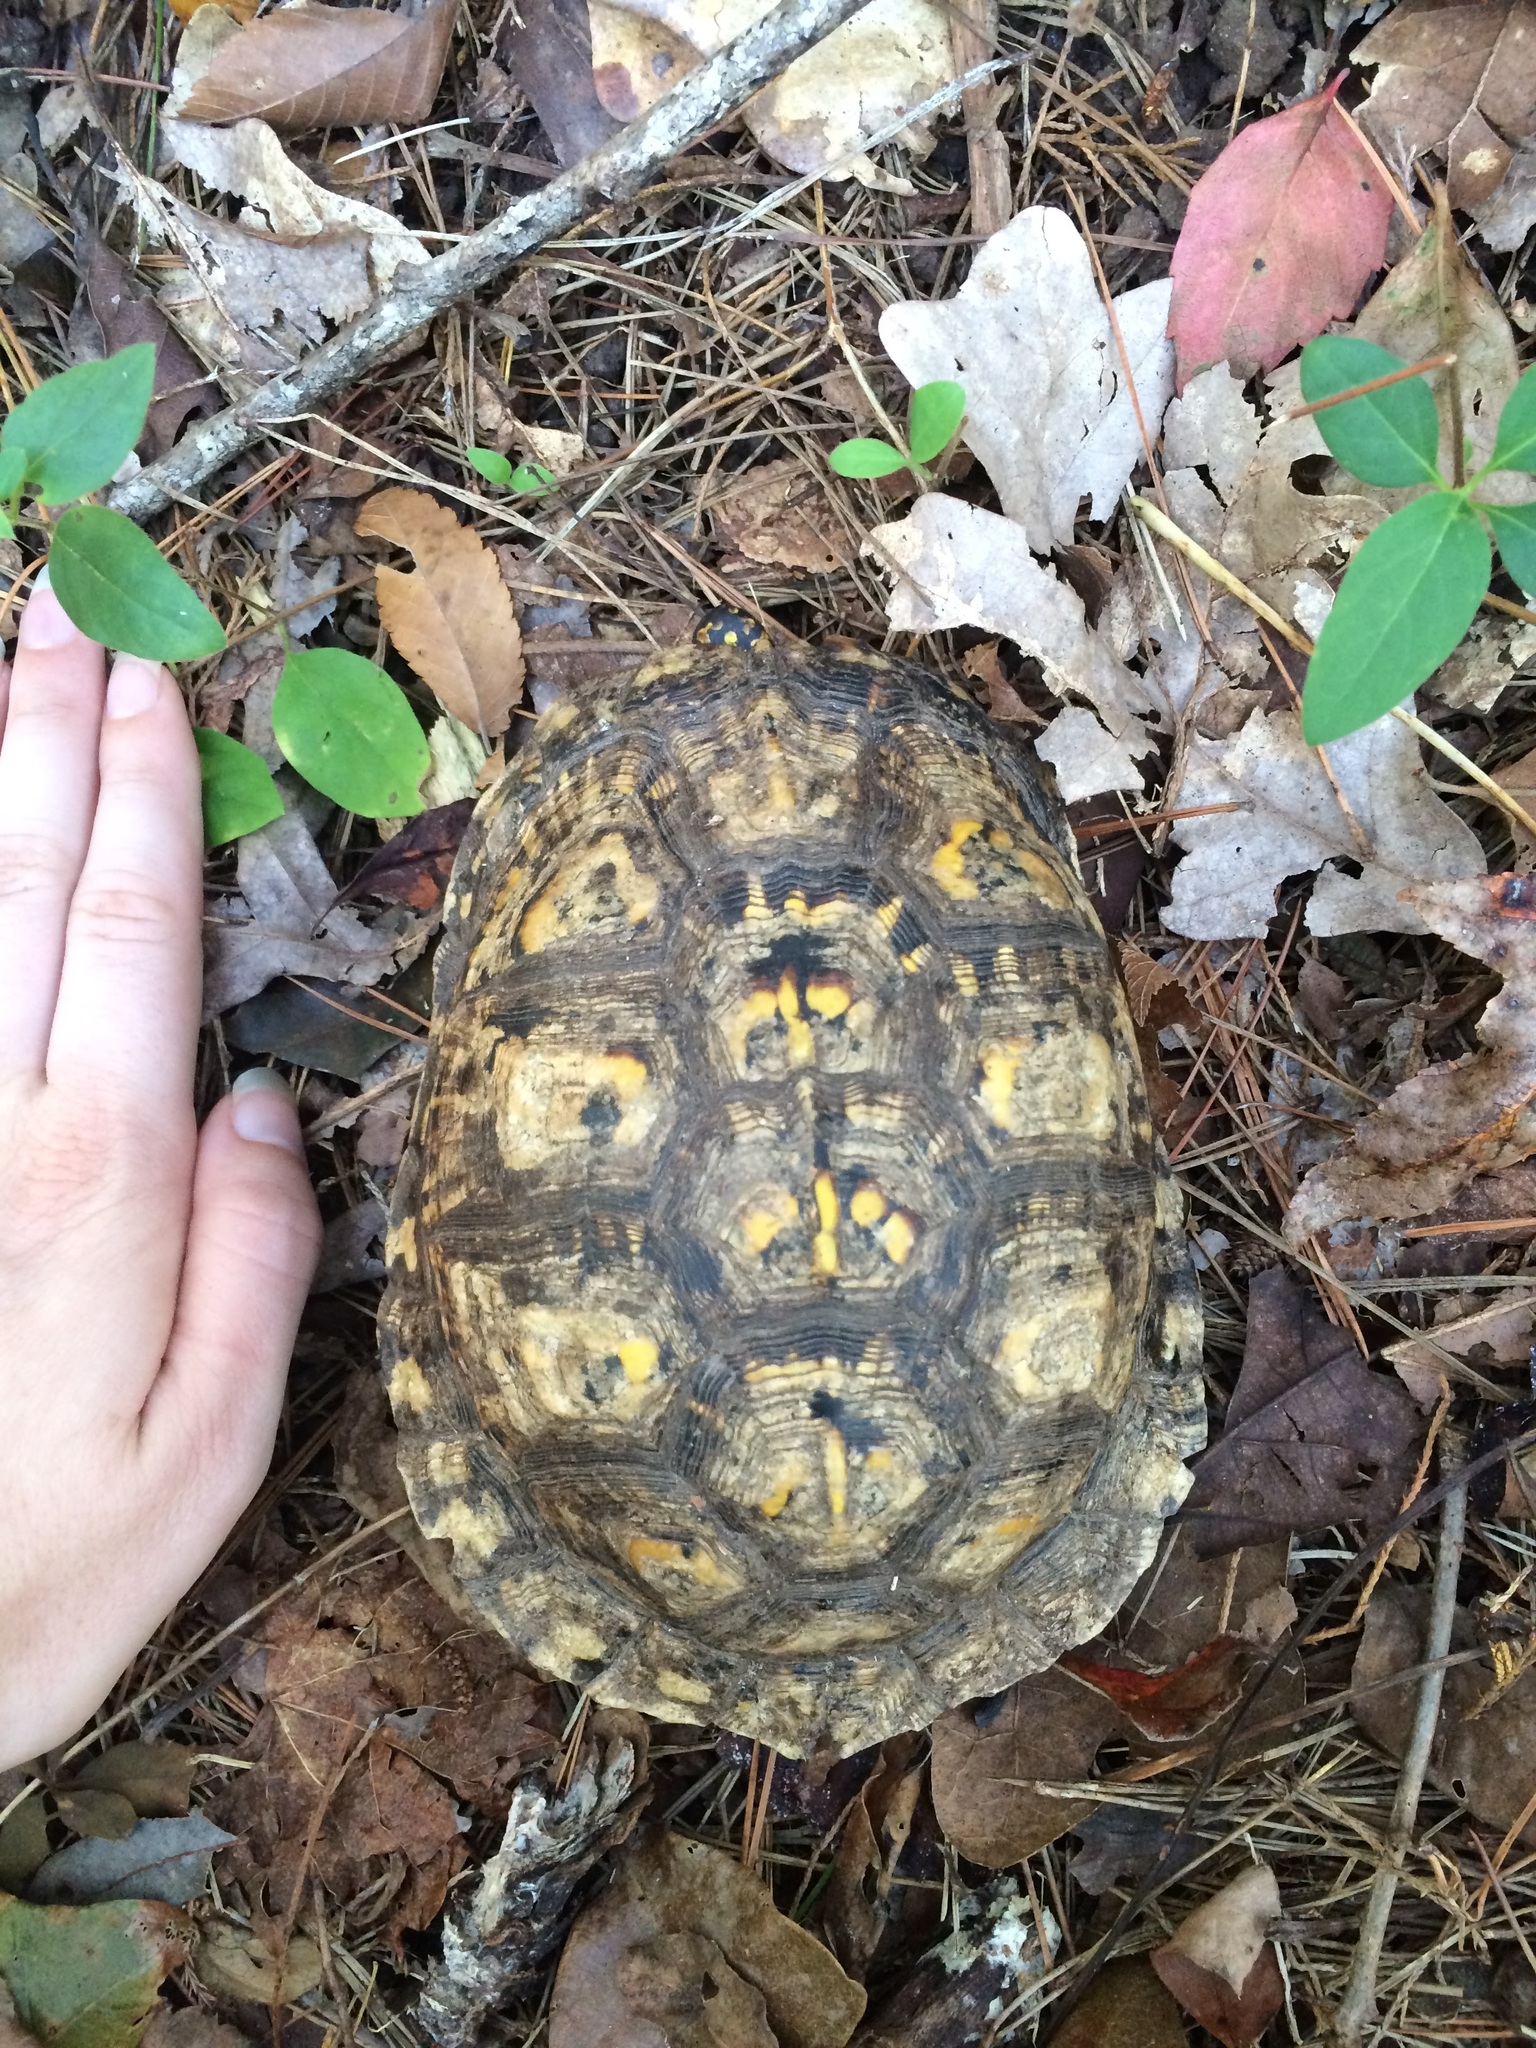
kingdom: Animalia
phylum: Chordata
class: Testudines
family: Emydidae
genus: Terrapene
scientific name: Terrapene carolina
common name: Common box turtle
